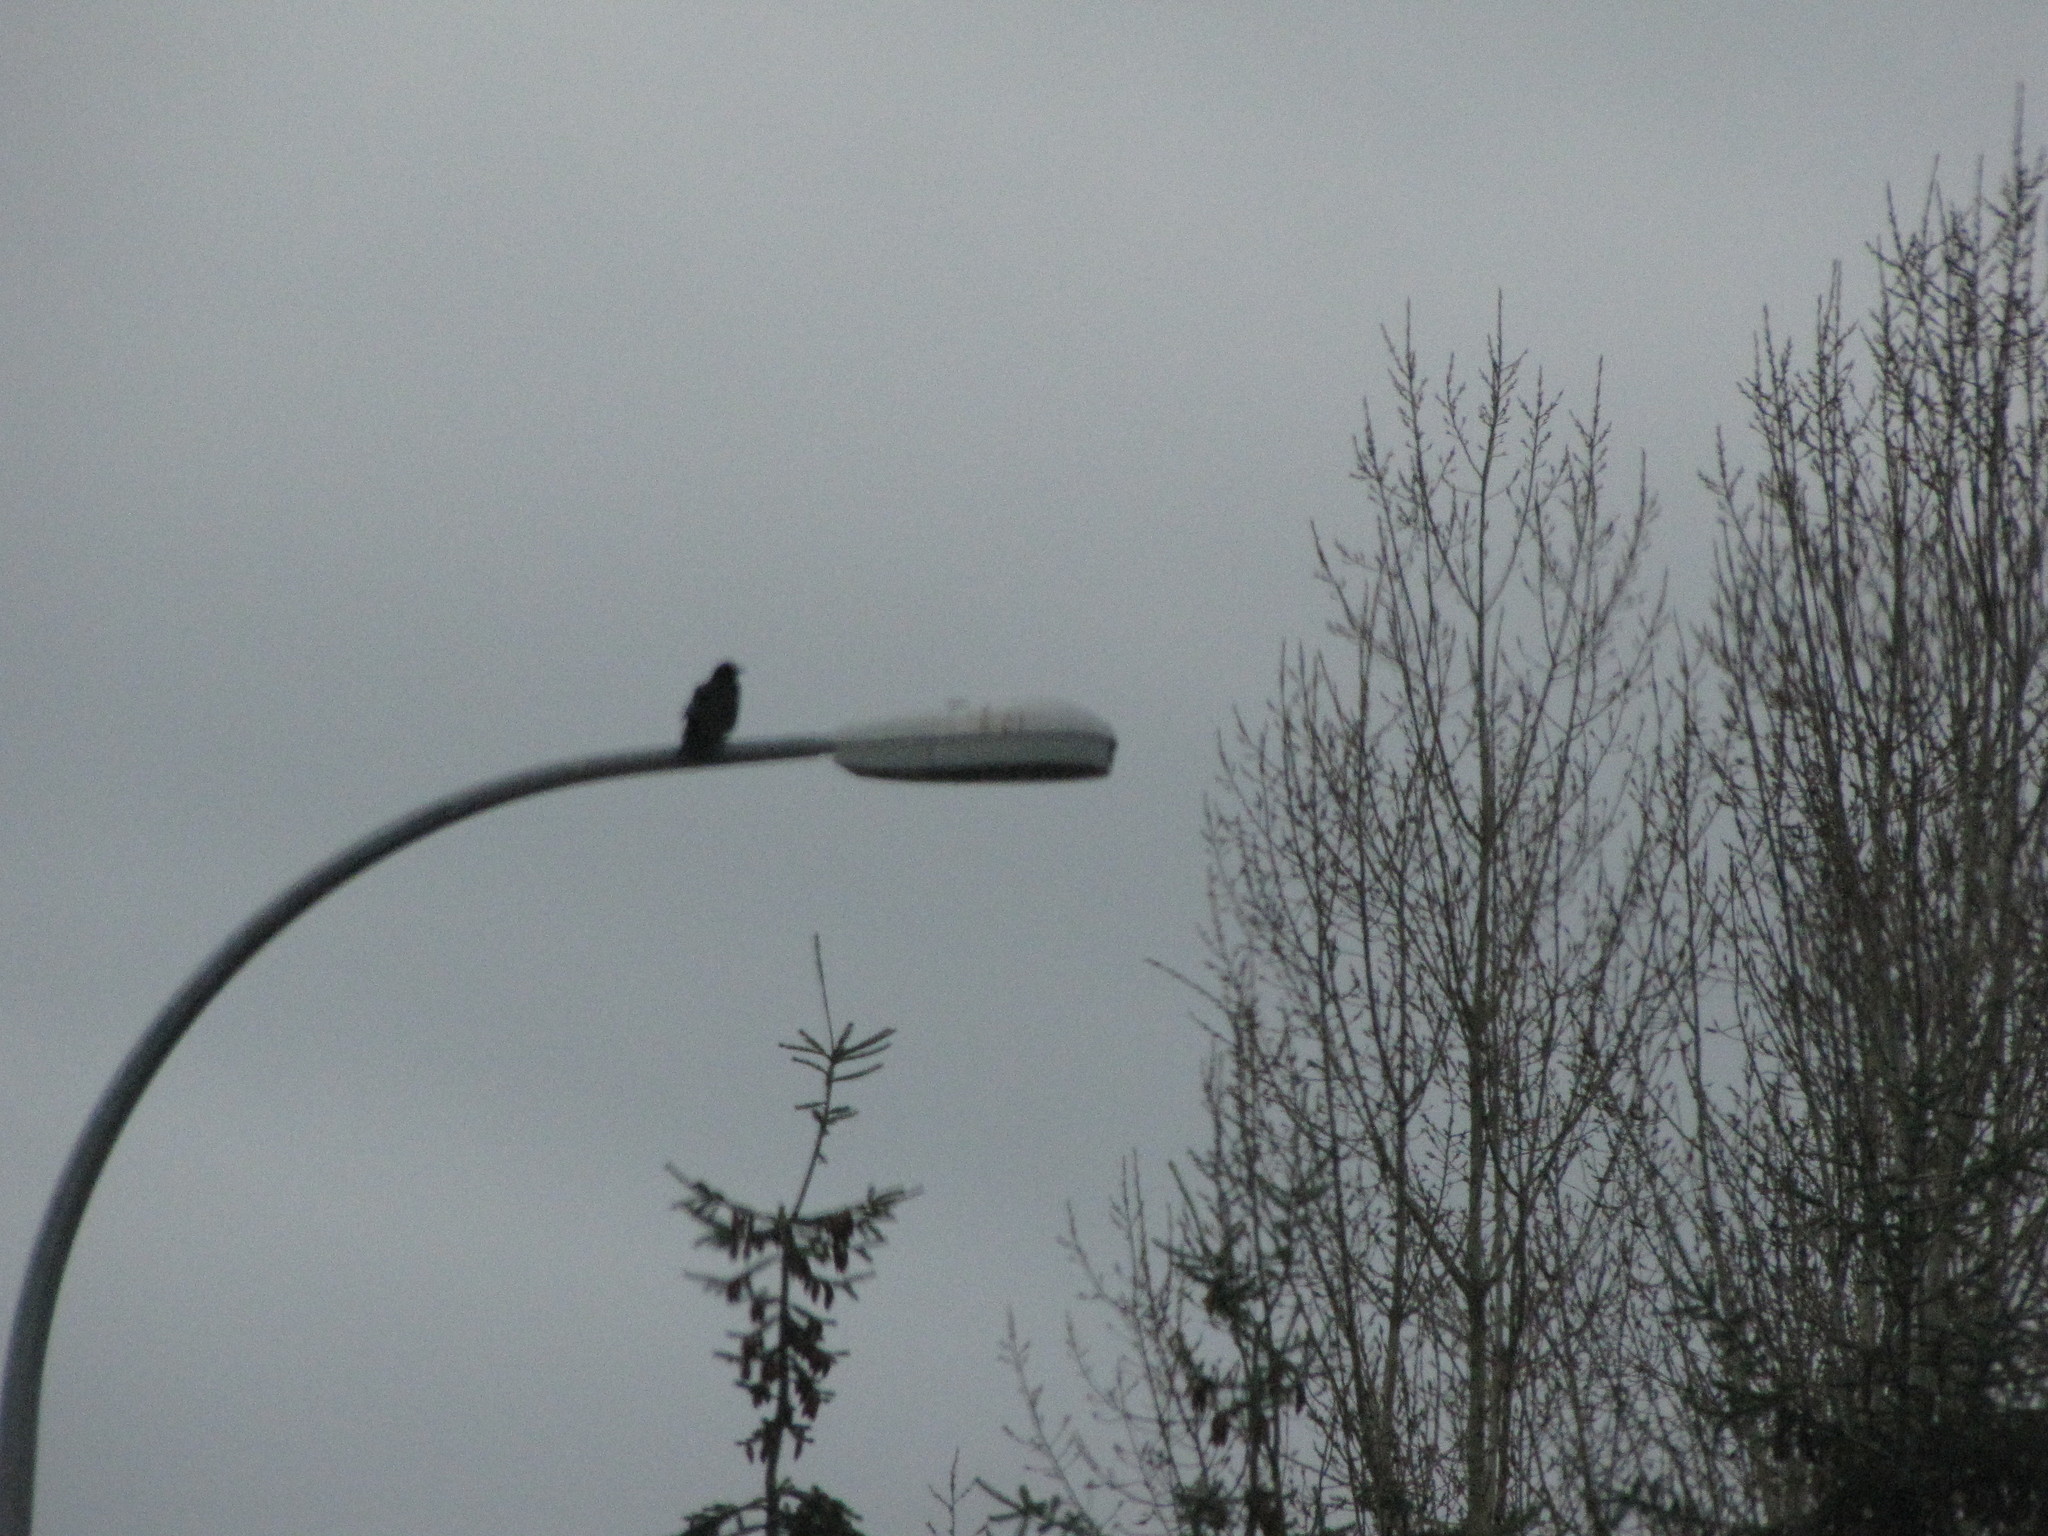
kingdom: Animalia
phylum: Chordata
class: Aves
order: Passeriformes
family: Corvidae
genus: Corvus
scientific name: Corvus brachyrhynchos
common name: American crow
